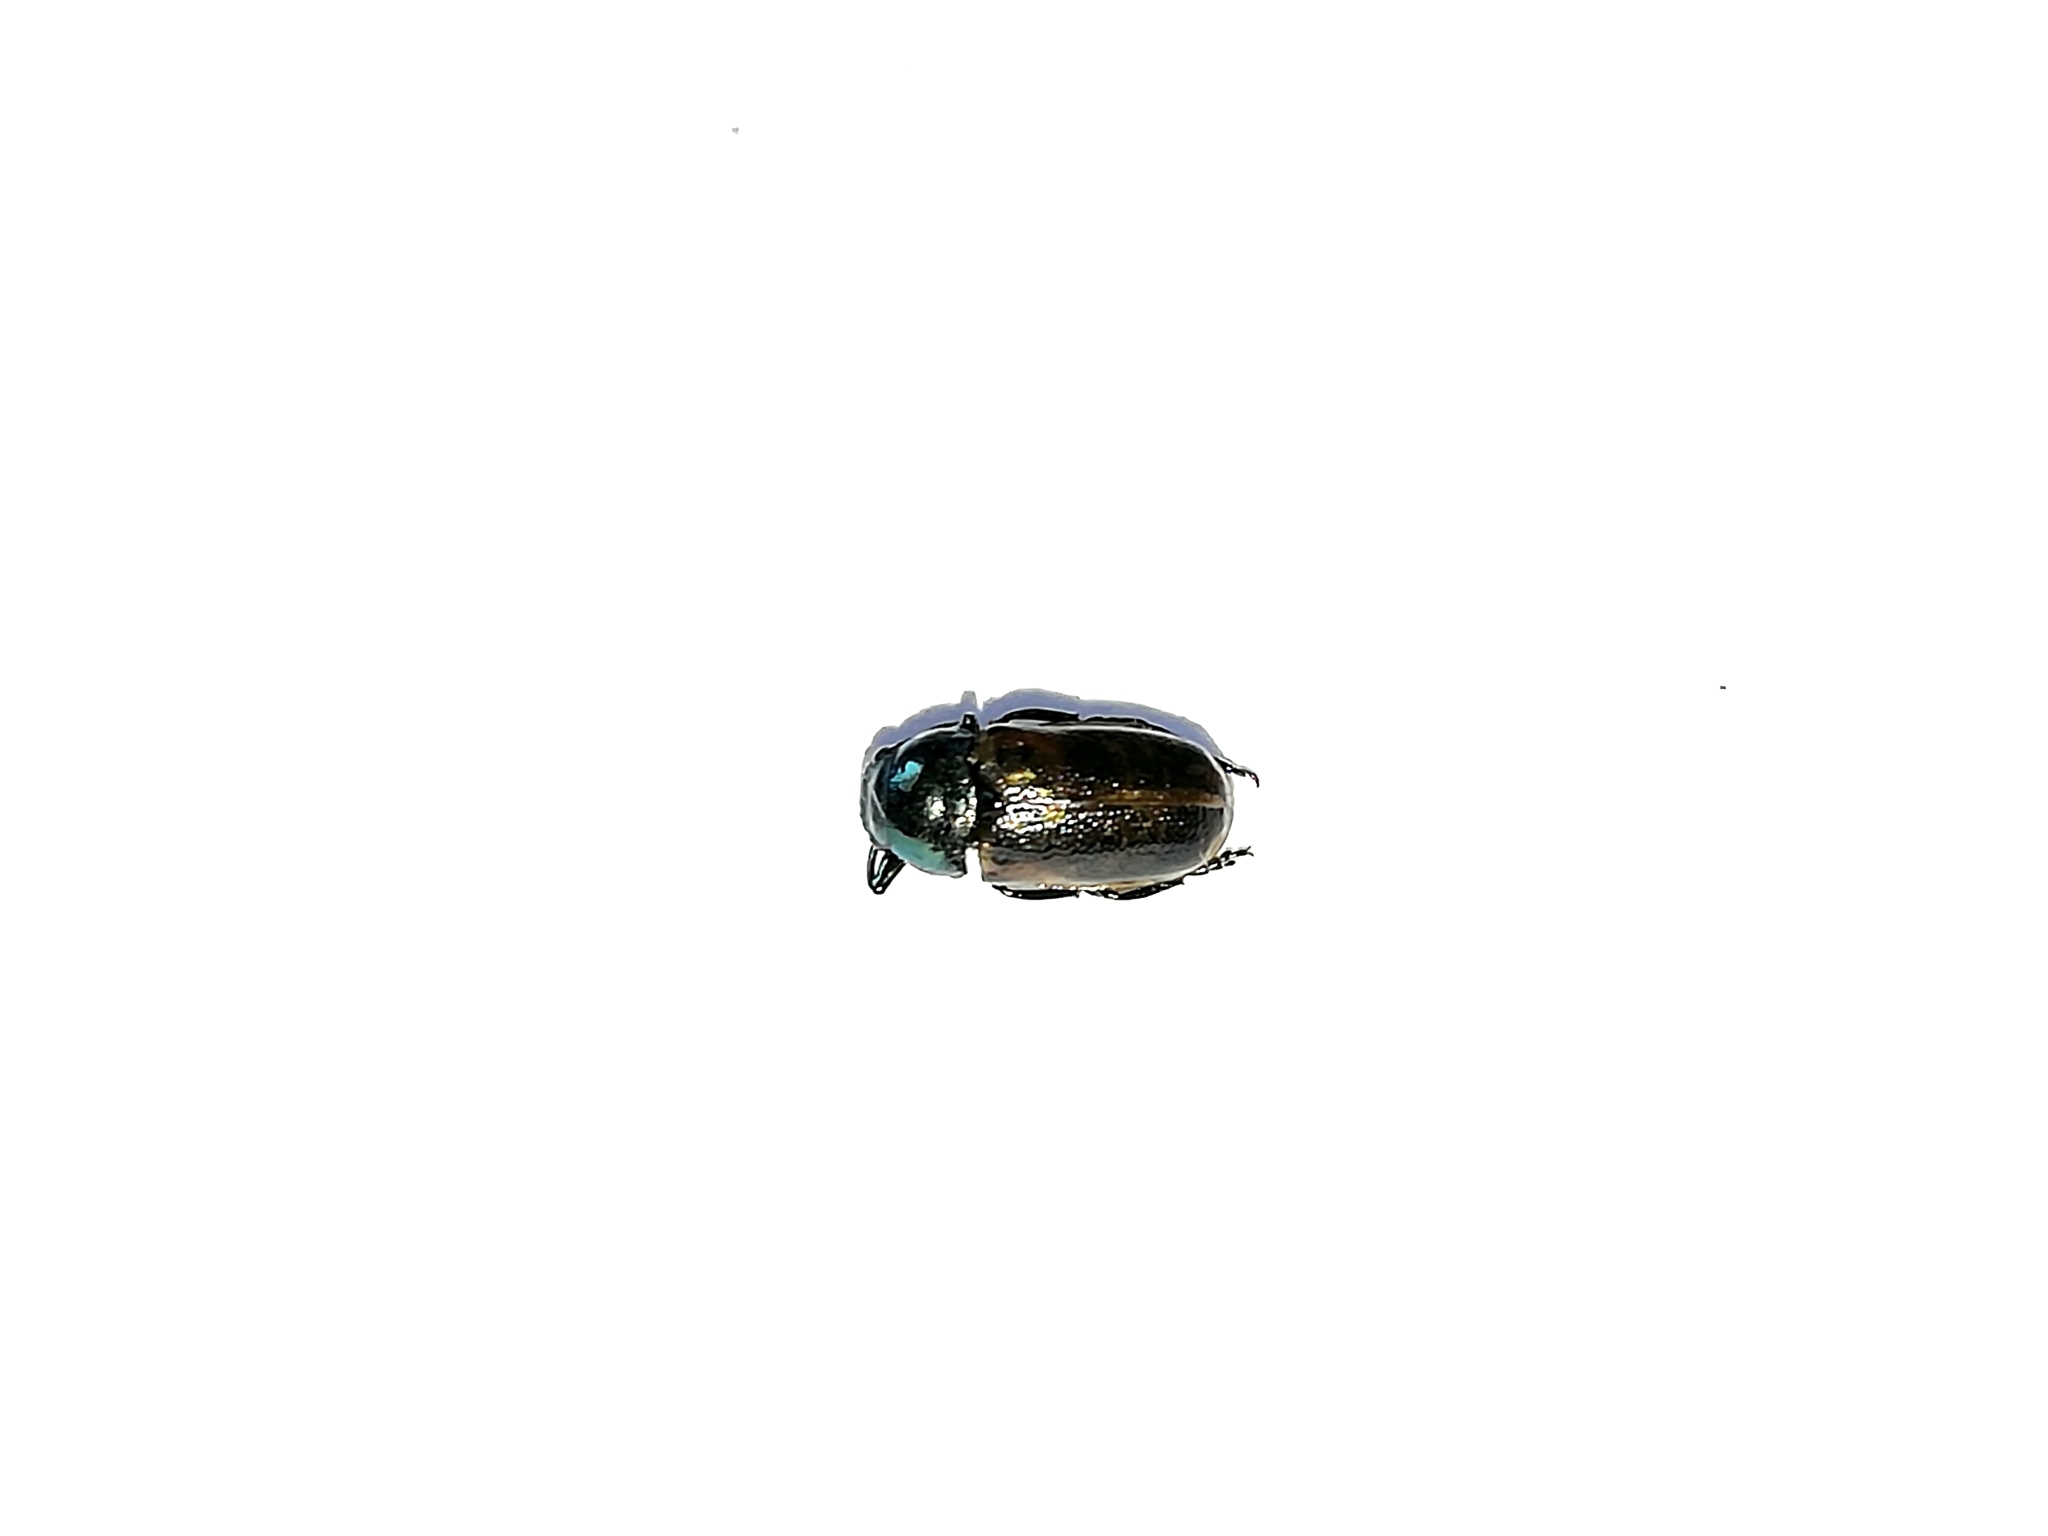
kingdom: Animalia
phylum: Arthropoda
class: Insecta
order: Coleoptera
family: Chrysomelidae
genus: Labidostomis
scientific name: Labidostomis longimana
